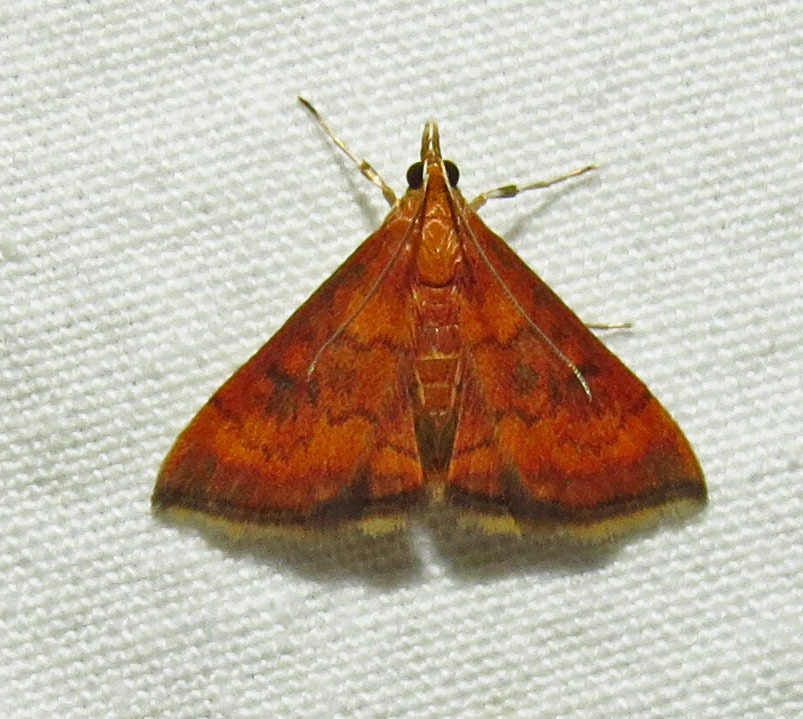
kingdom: Animalia
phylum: Arthropoda
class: Insecta
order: Lepidoptera
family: Crambidae
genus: Pyrausta
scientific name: Pyrausta rubricalis
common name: Variable reddish pyrausta
